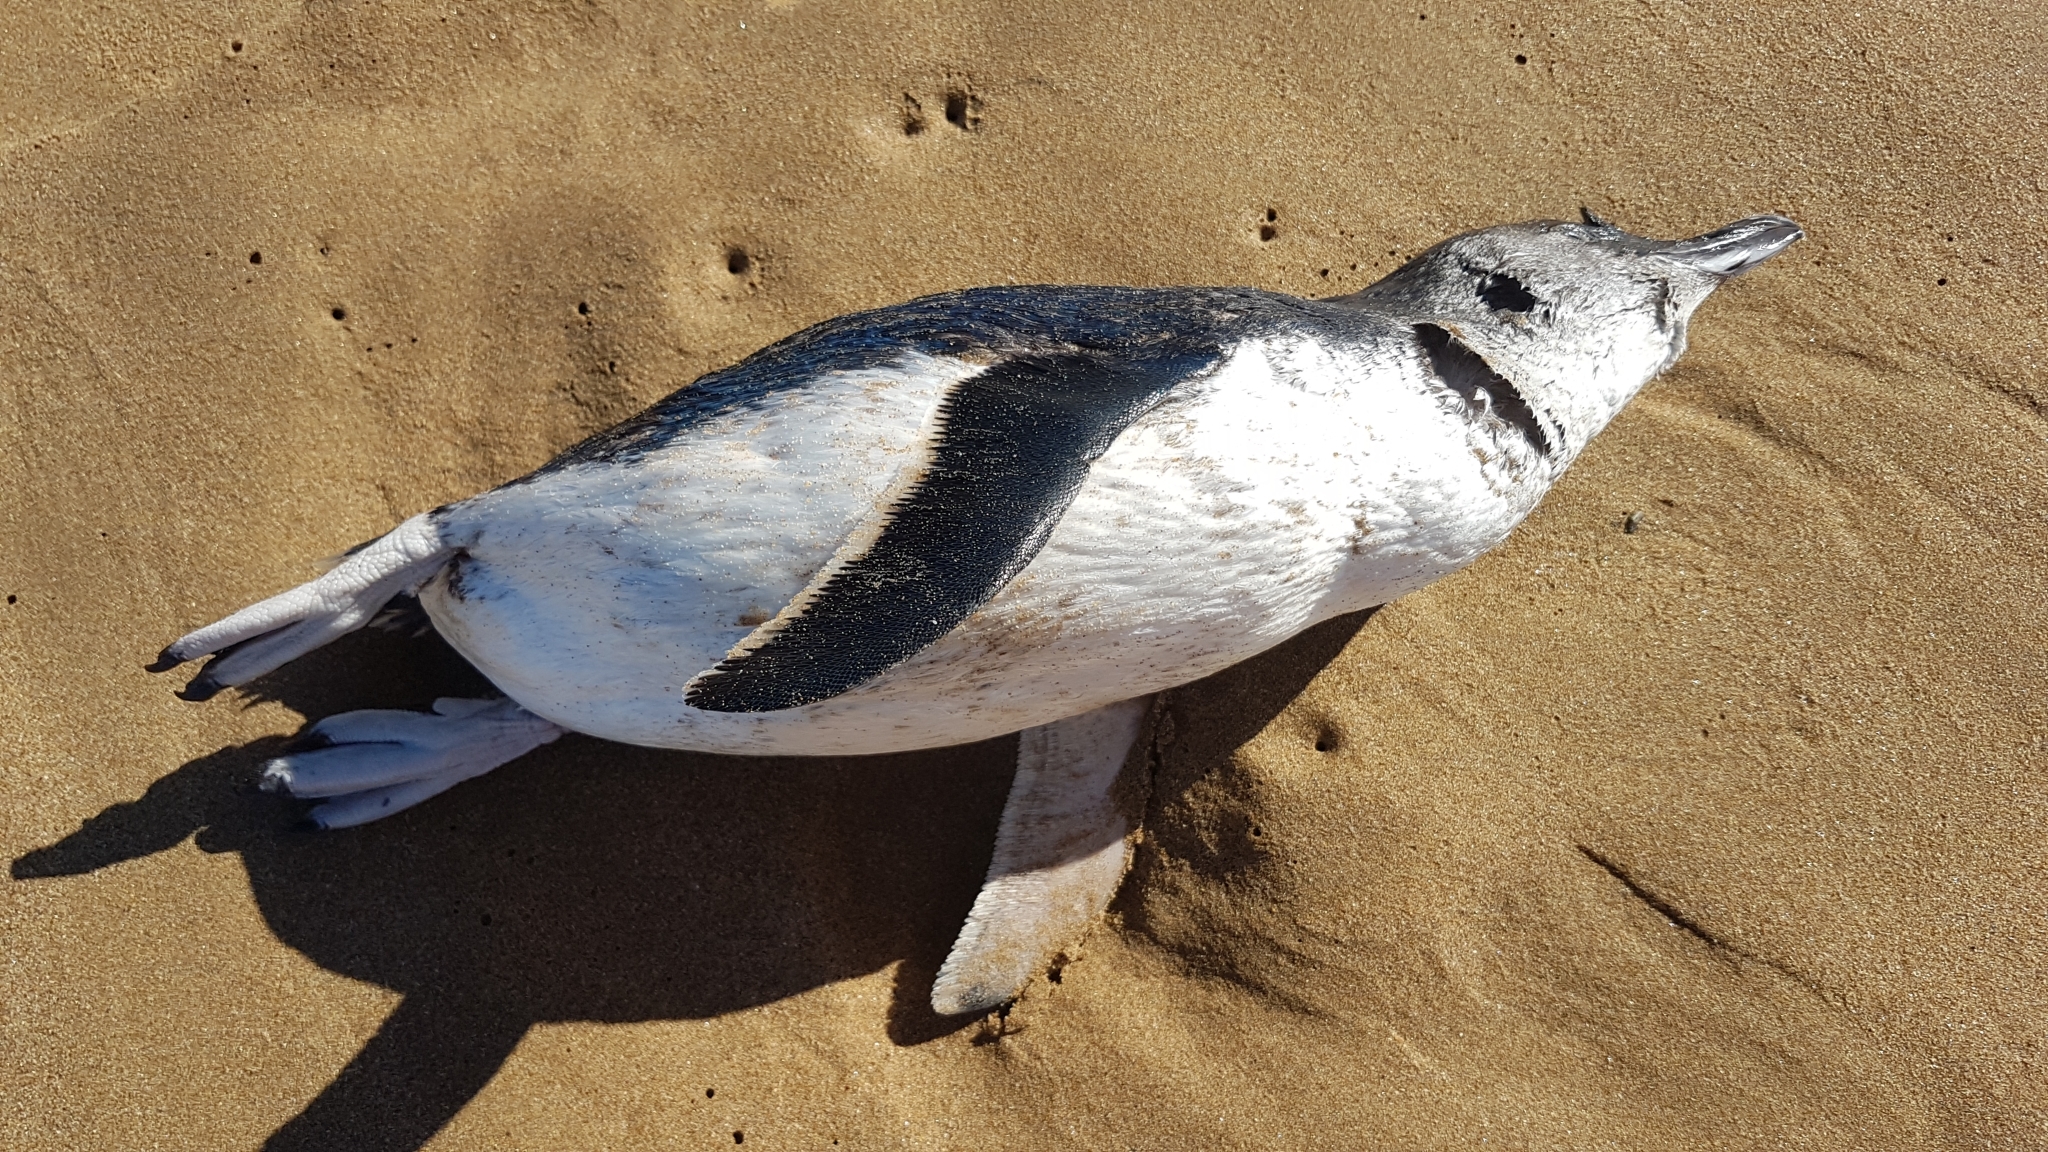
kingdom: Animalia
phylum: Chordata
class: Aves
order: Sphenisciformes
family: Spheniscidae
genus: Eudyptula
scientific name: Eudyptula minor
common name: Little penguin
